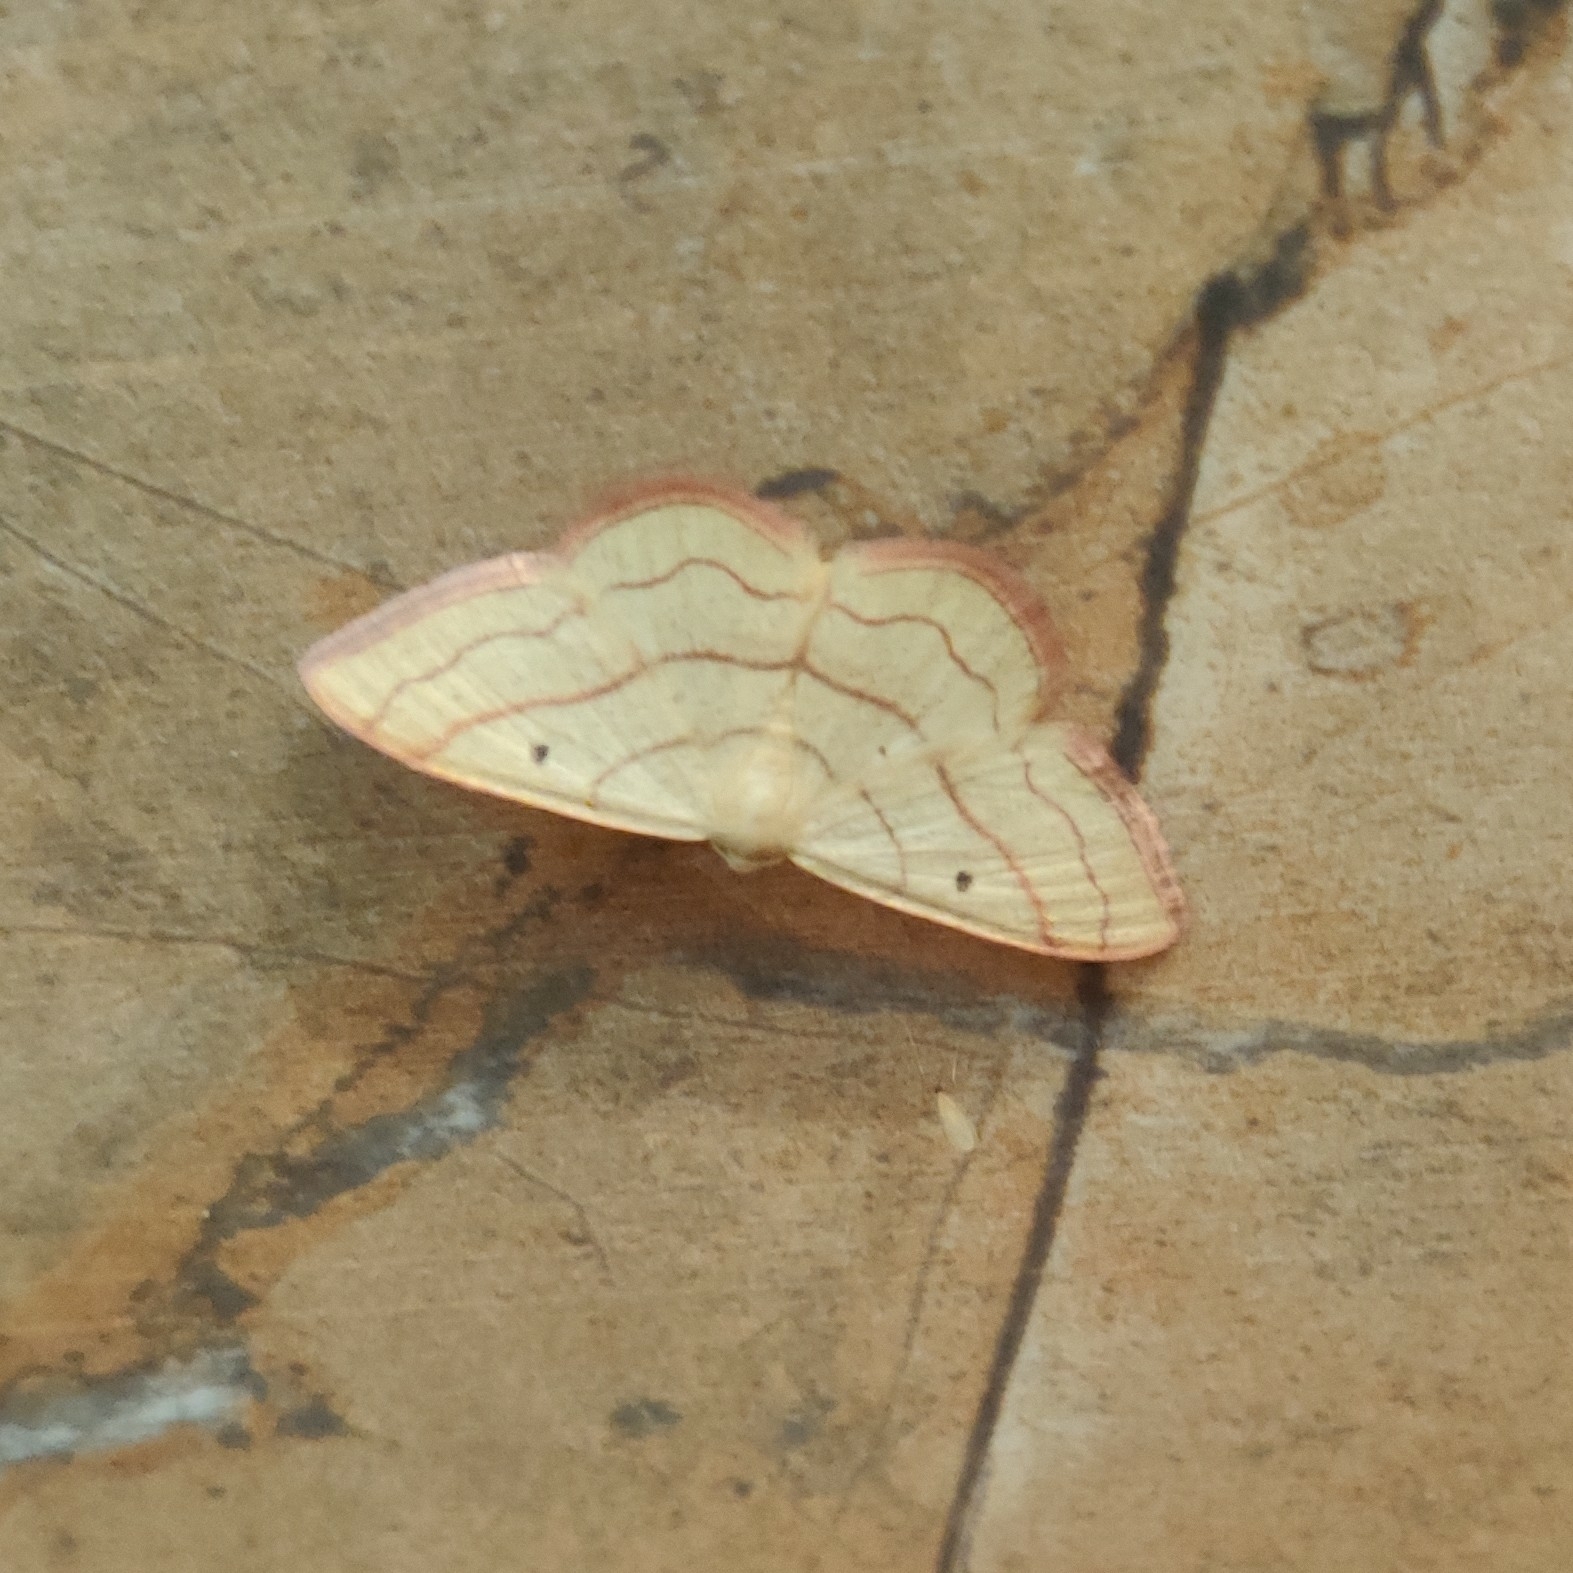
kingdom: Animalia
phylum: Arthropoda
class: Insecta
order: Lepidoptera
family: Geometridae
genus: Rhodostrophia
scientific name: Rhodostrophia stigmatica
